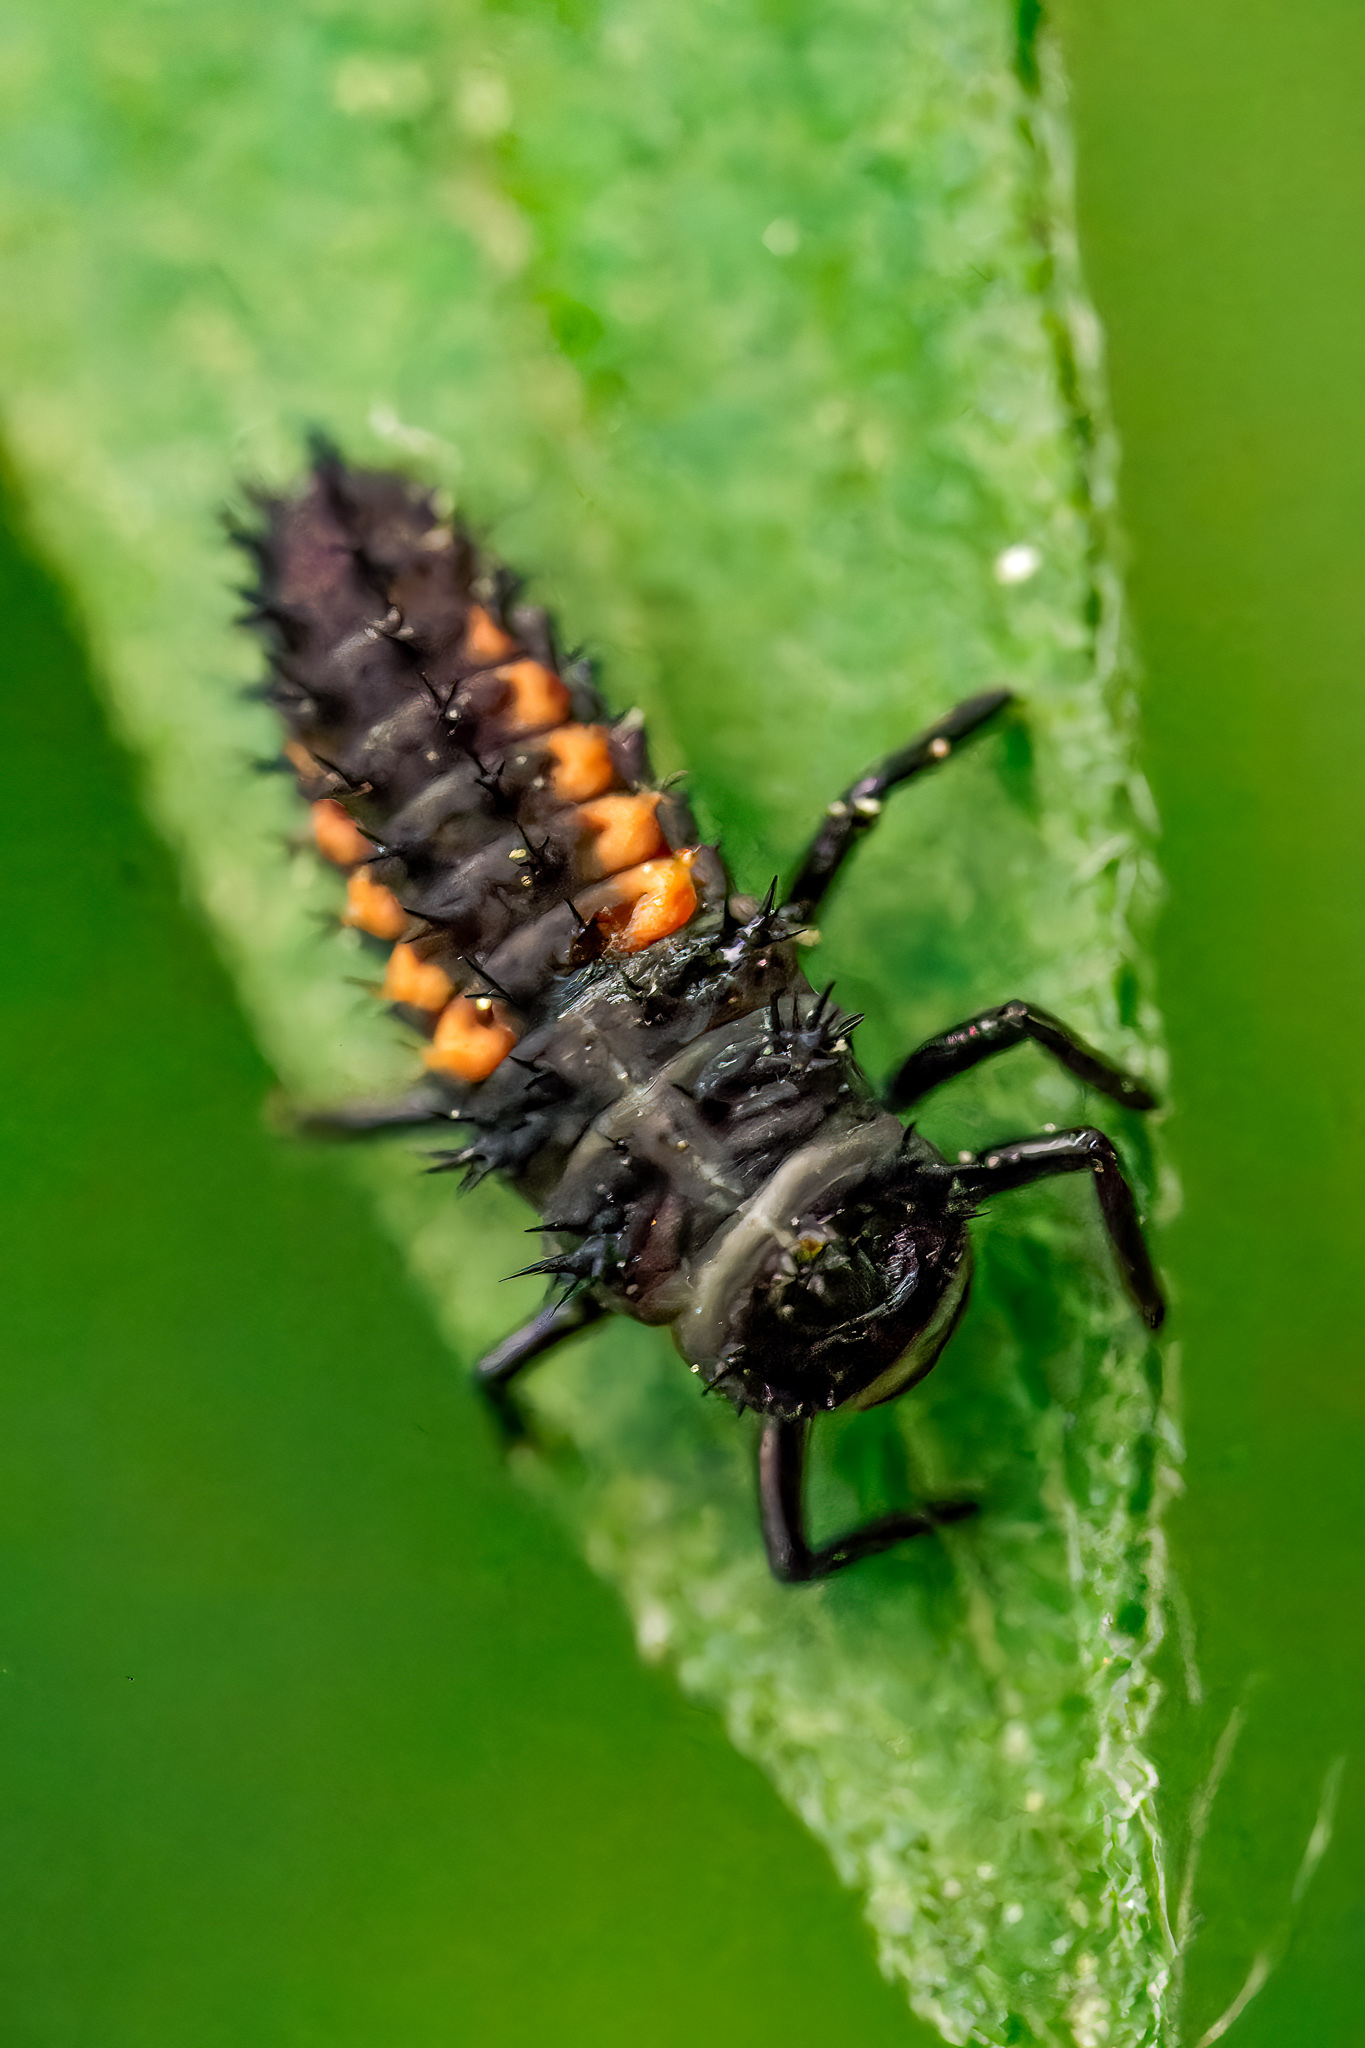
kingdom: Animalia
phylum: Arthropoda
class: Insecta
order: Coleoptera
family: Coccinellidae
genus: Harmonia
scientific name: Harmonia axyridis
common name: Harlequin ladybird
